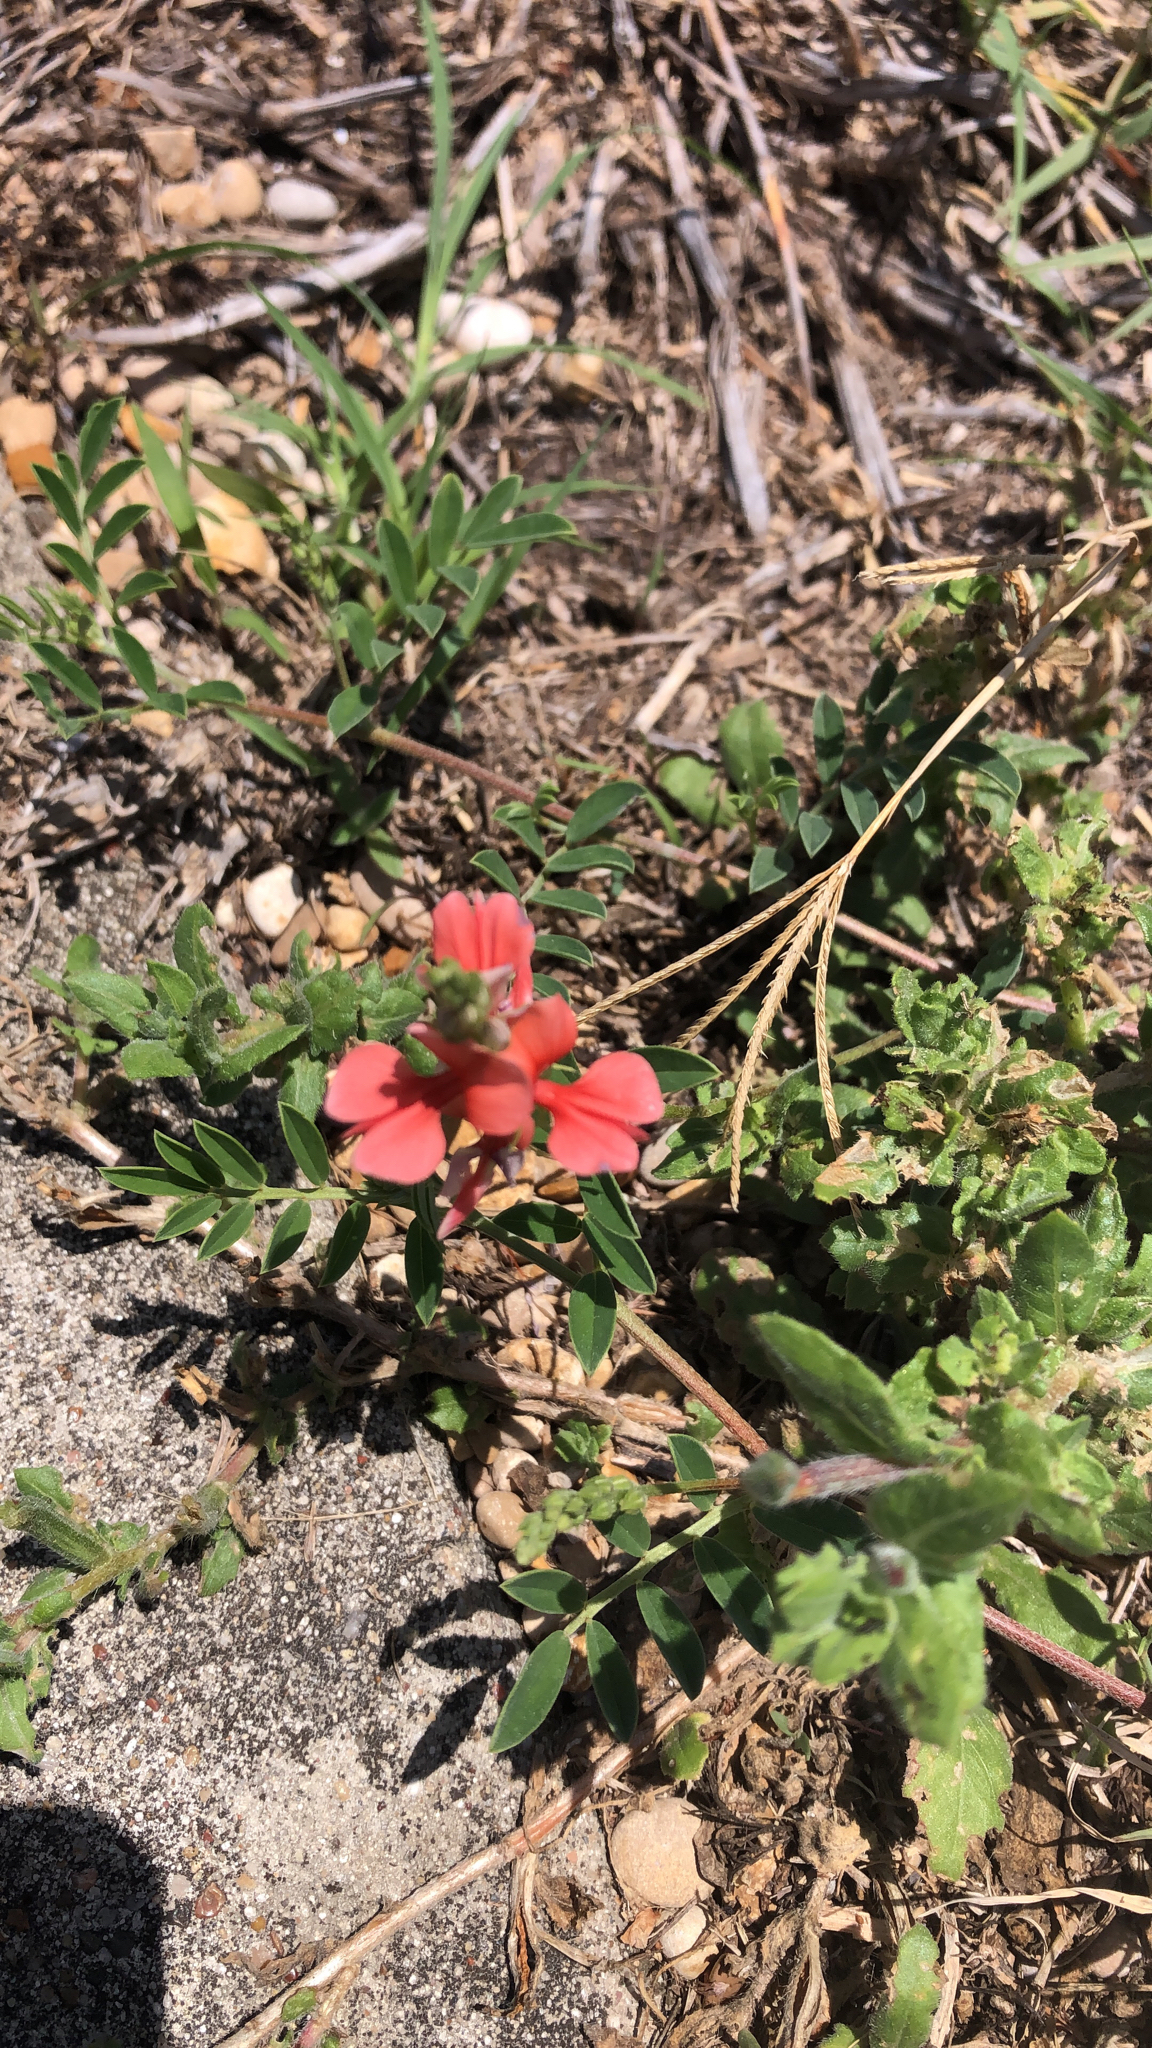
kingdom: Plantae
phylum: Tracheophyta
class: Magnoliopsida
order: Fabales
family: Fabaceae
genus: Indigofera
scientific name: Indigofera miniata
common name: Coast indigo
